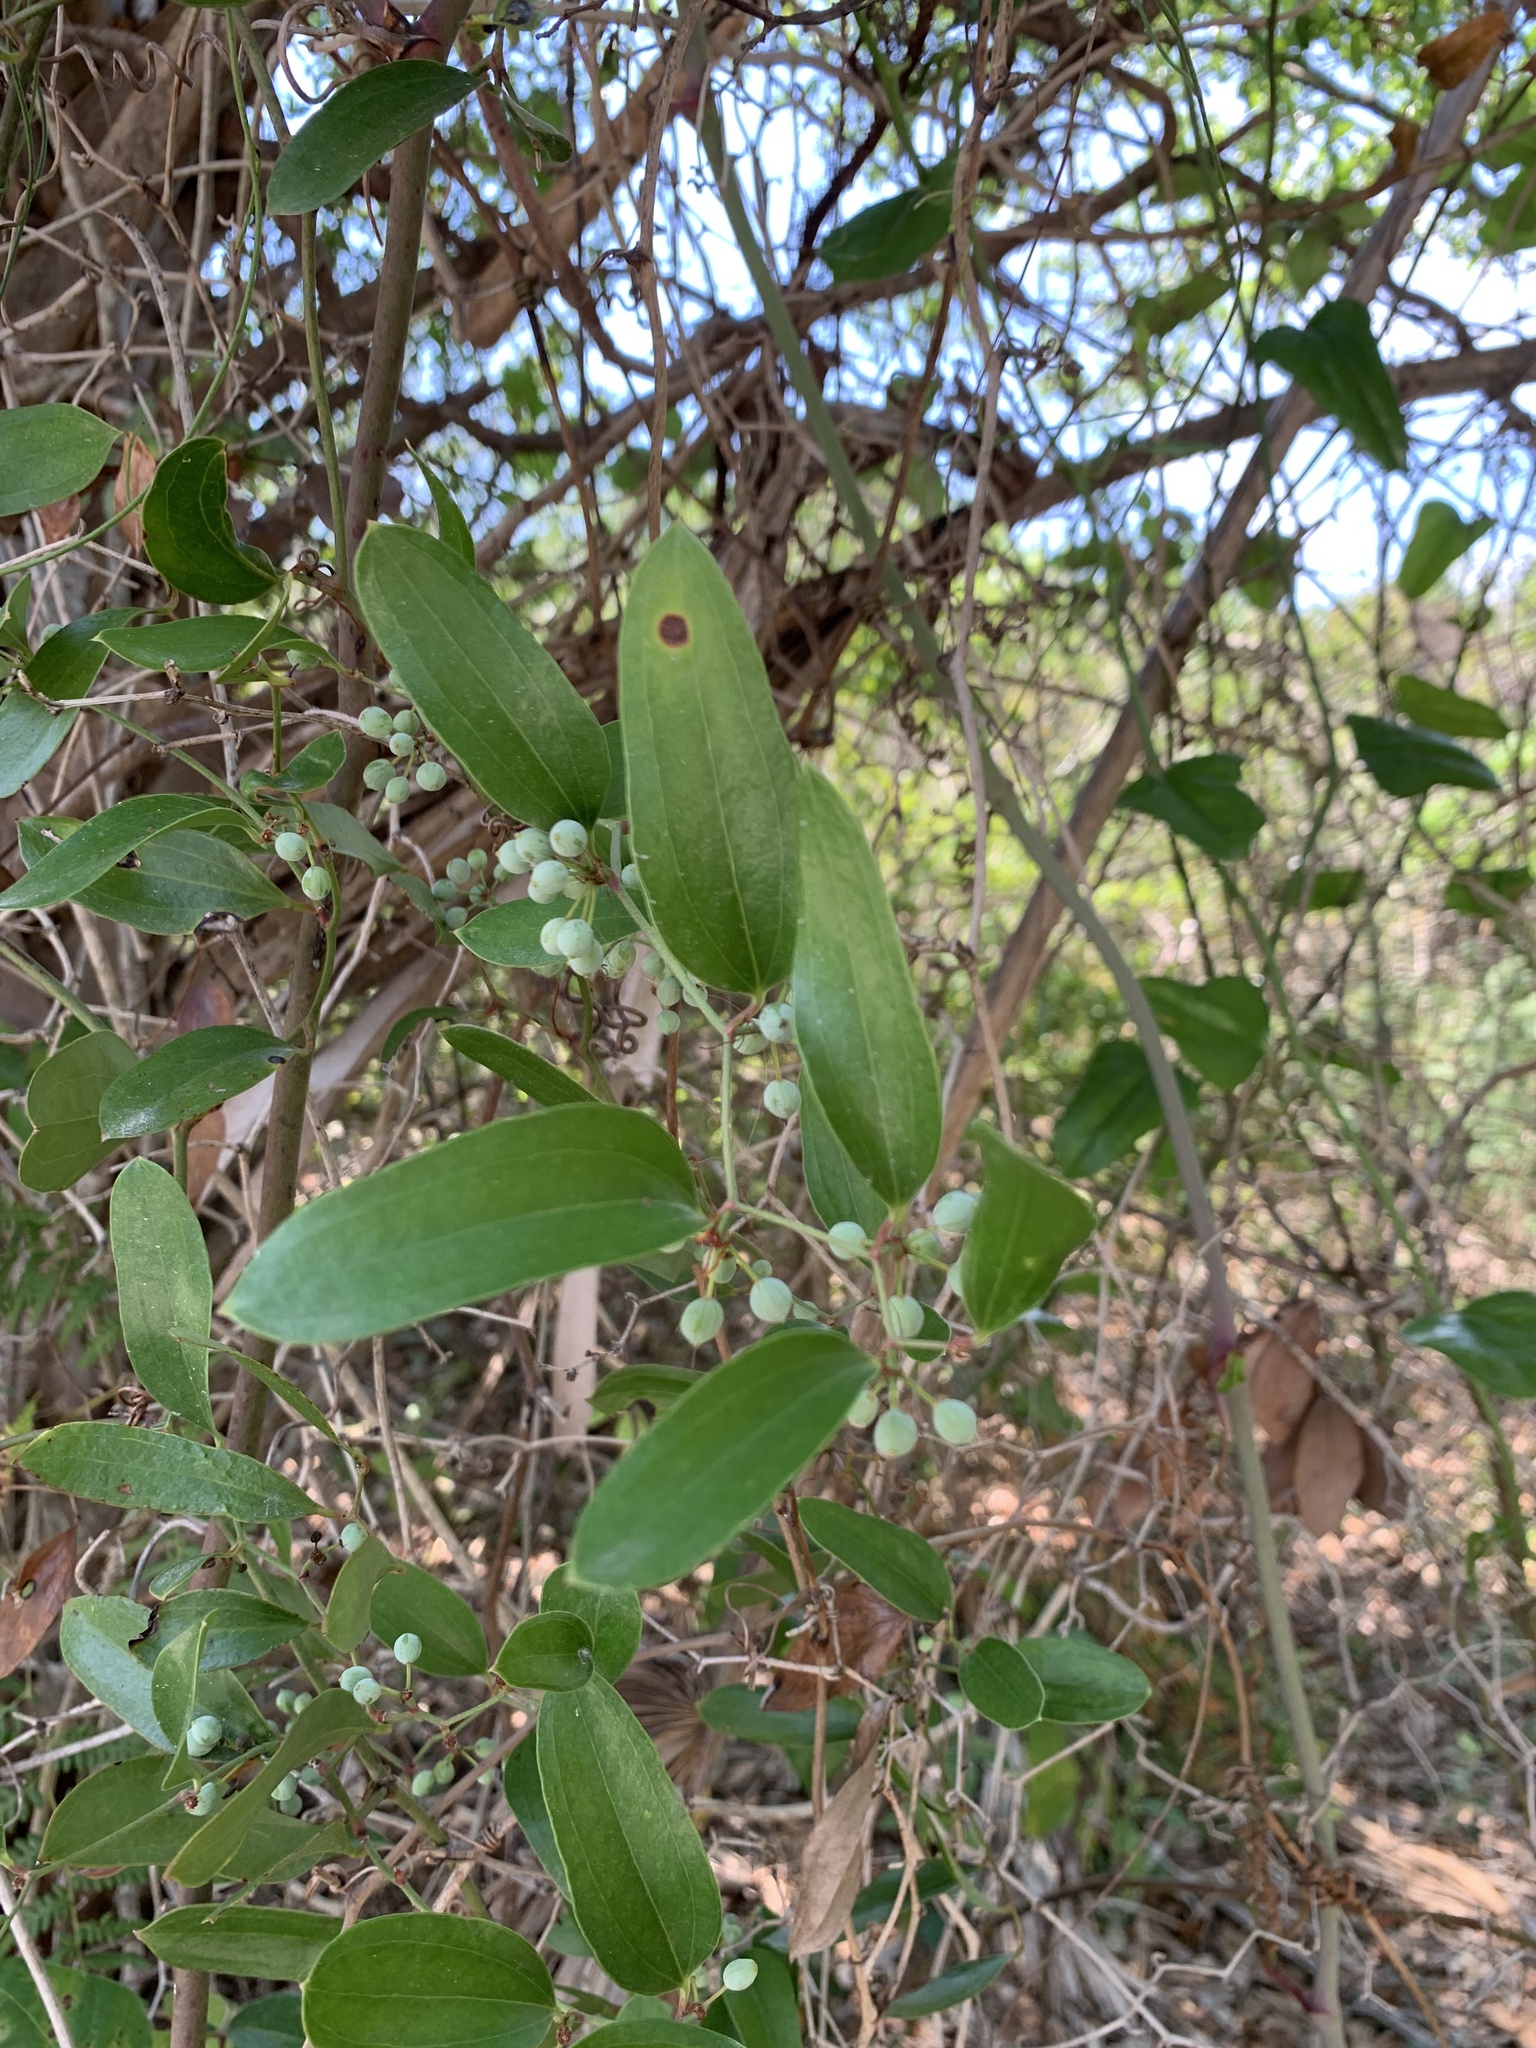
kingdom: Plantae
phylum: Tracheophyta
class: Liliopsida
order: Liliales
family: Smilacaceae
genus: Smilax
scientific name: Smilax auriculata
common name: Wild bamboo
